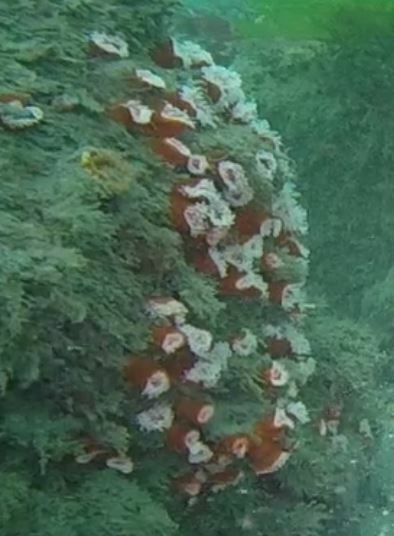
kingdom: Animalia
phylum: Cnidaria
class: Anthozoa
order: Corallimorpharia
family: Corallimorphidae
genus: Corynactis
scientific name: Corynactis californica
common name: Strawberry corallimorpharian
